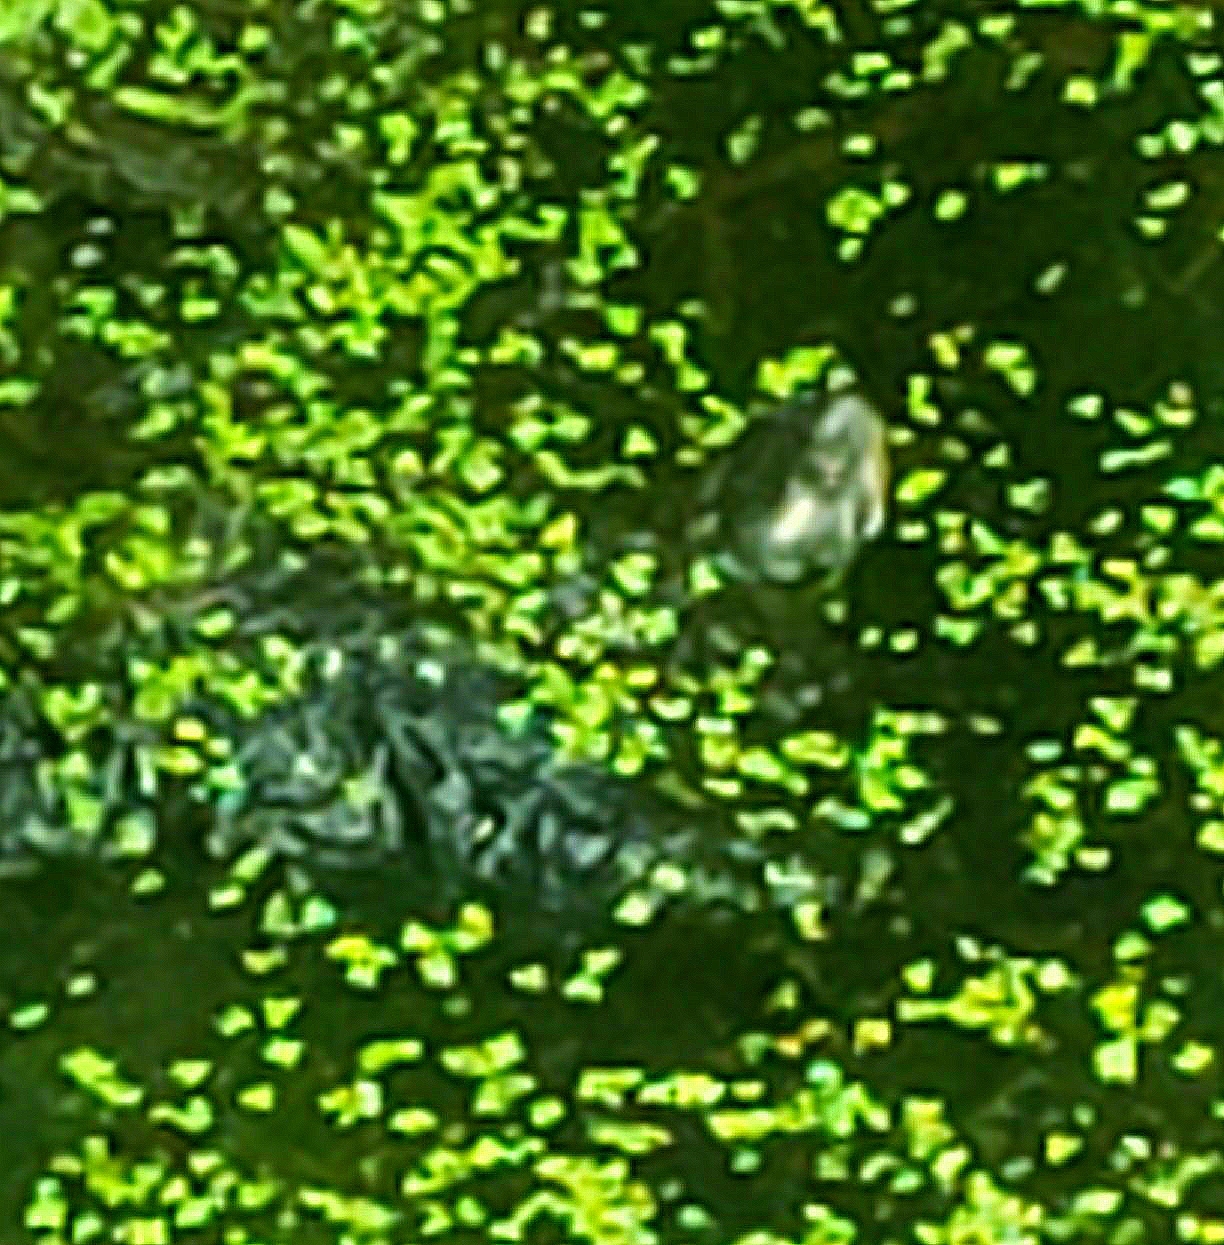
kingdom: Animalia
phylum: Chordata
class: Testudines
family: Emydidae
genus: Chrysemys
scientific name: Chrysemys picta
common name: Painted turtle
